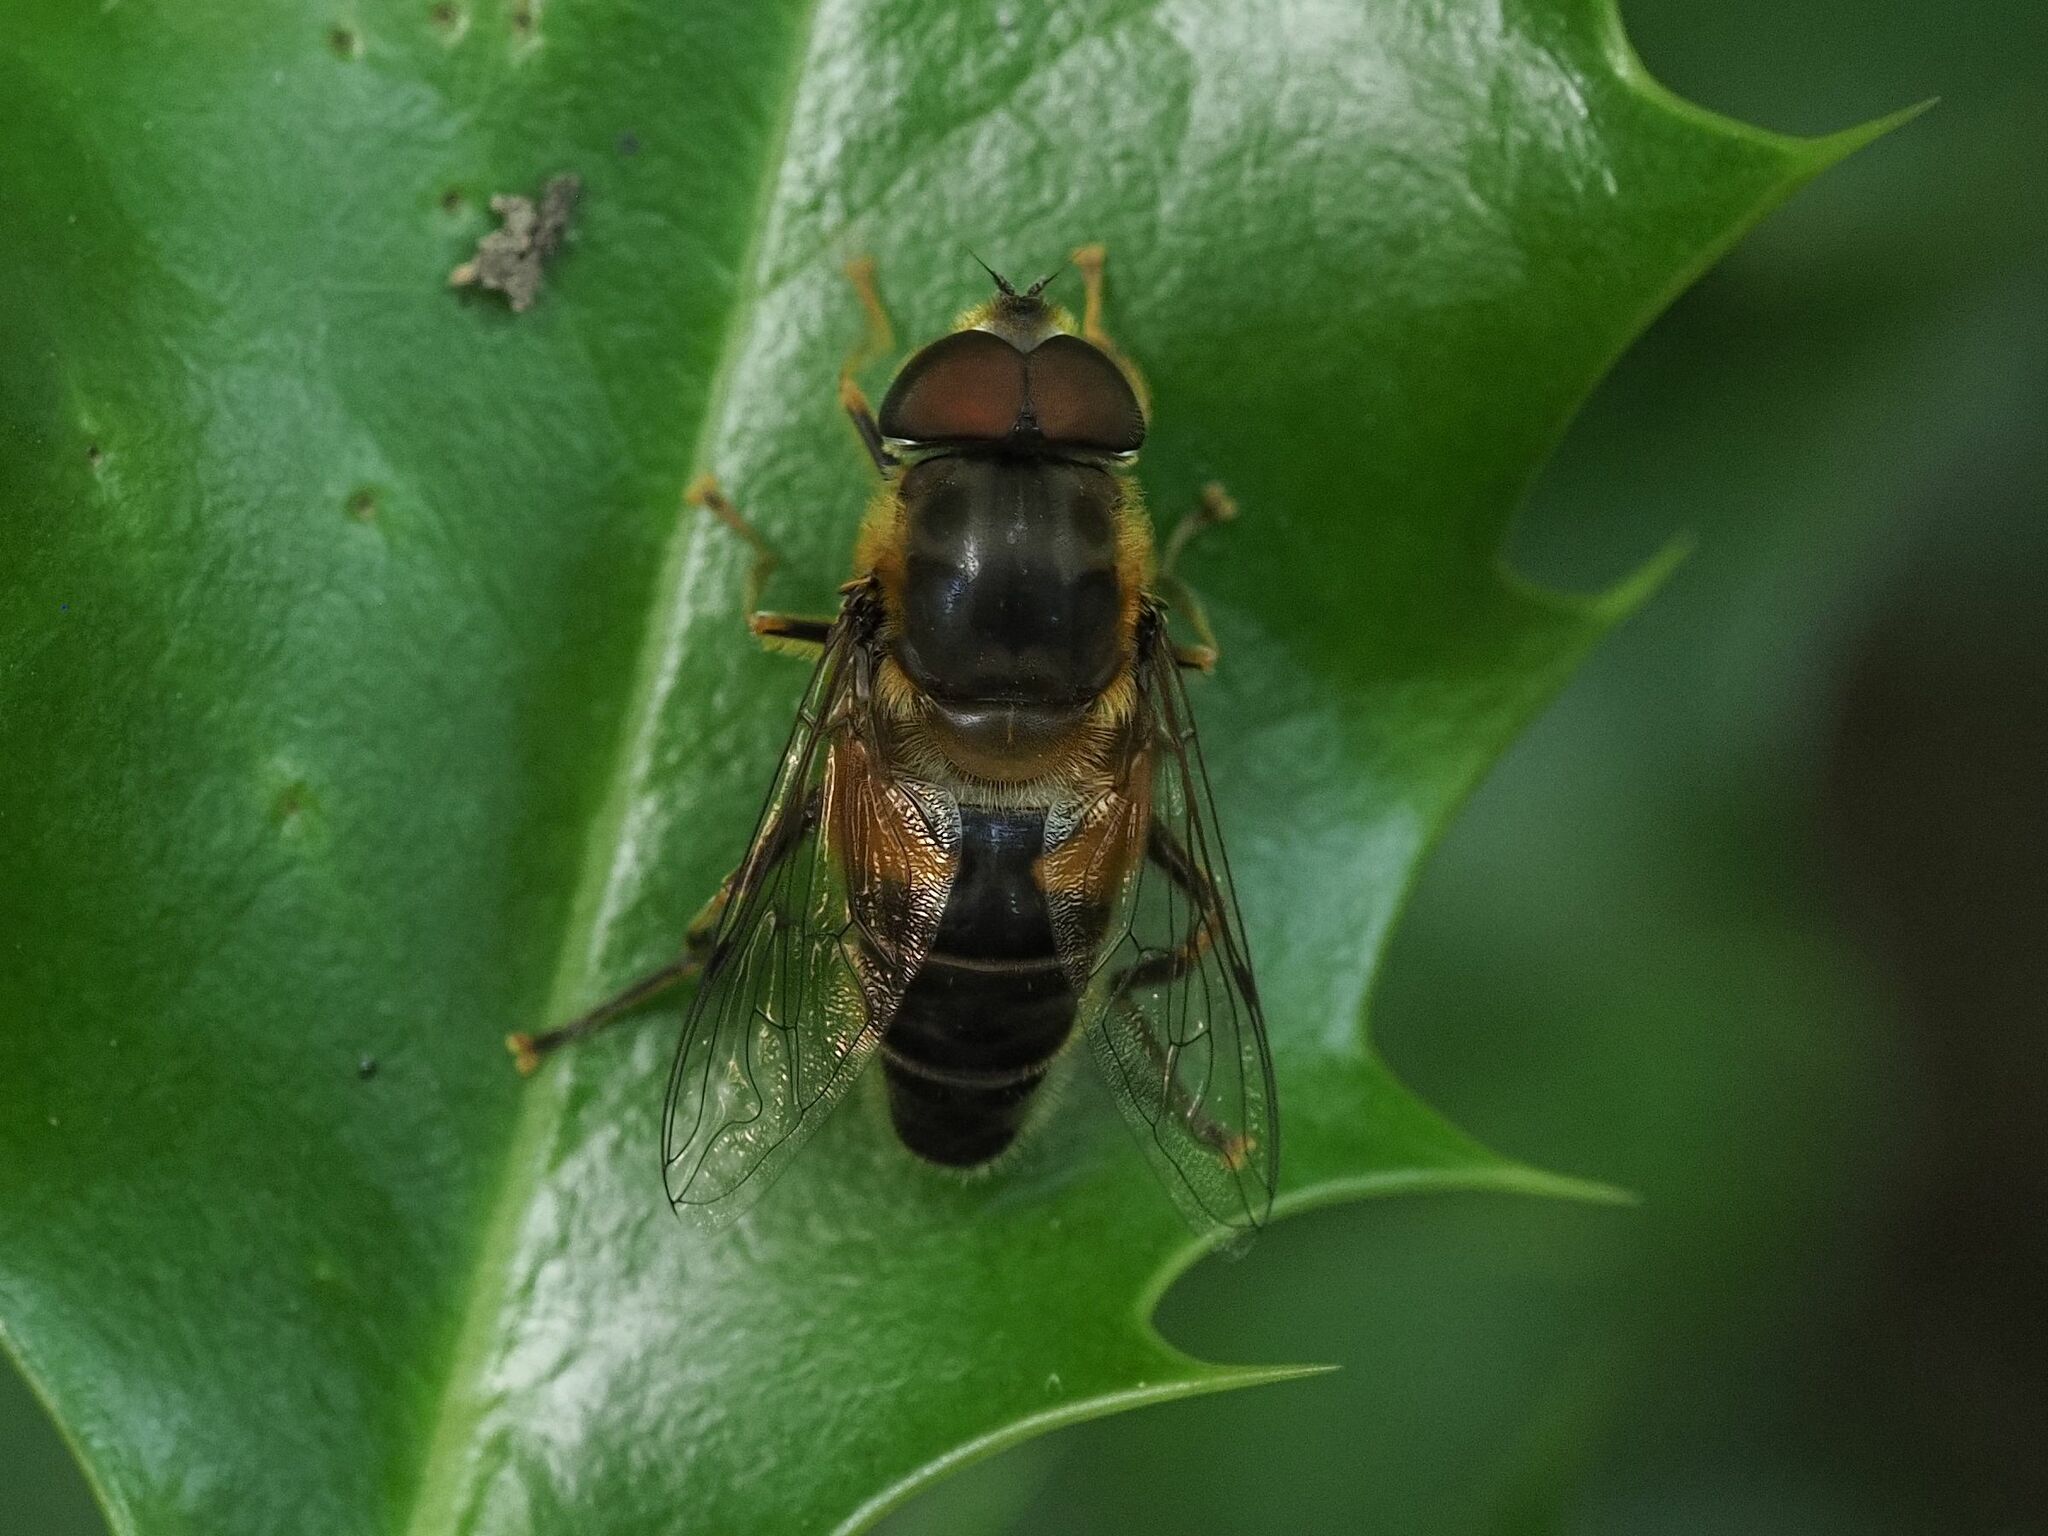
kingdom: Animalia
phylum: Arthropoda
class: Insecta
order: Diptera
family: Syrphidae
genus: Eristalis
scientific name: Eristalis pertinax
